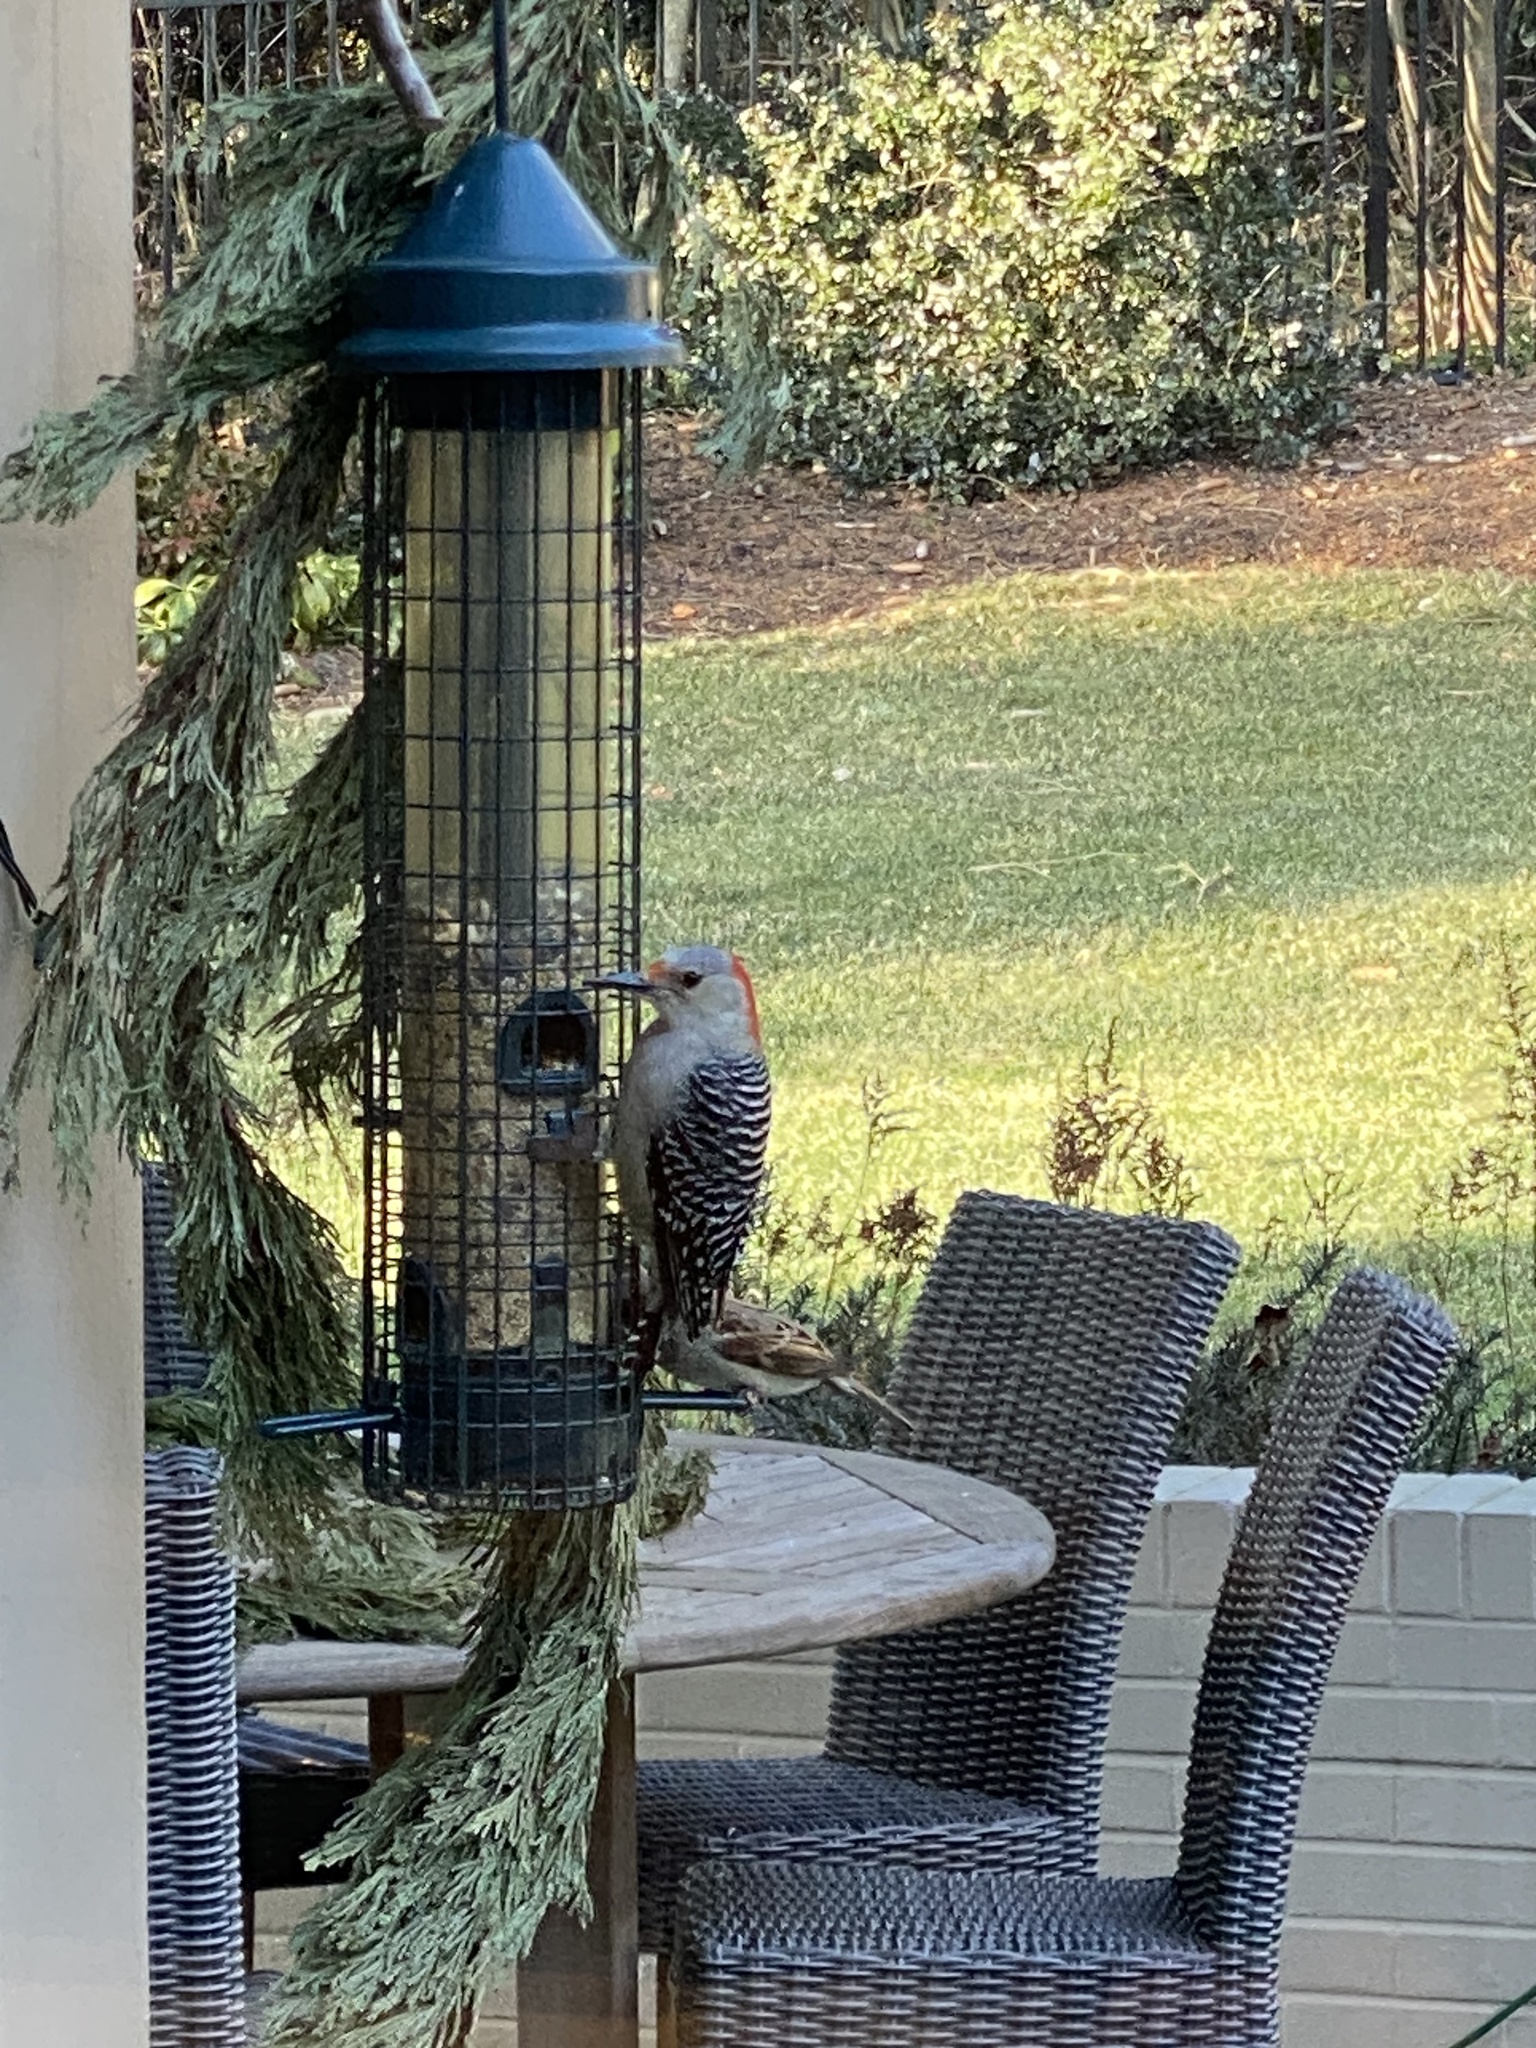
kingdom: Animalia
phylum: Chordata
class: Aves
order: Piciformes
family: Picidae
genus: Melanerpes
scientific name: Melanerpes carolinus
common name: Red-bellied woodpecker
